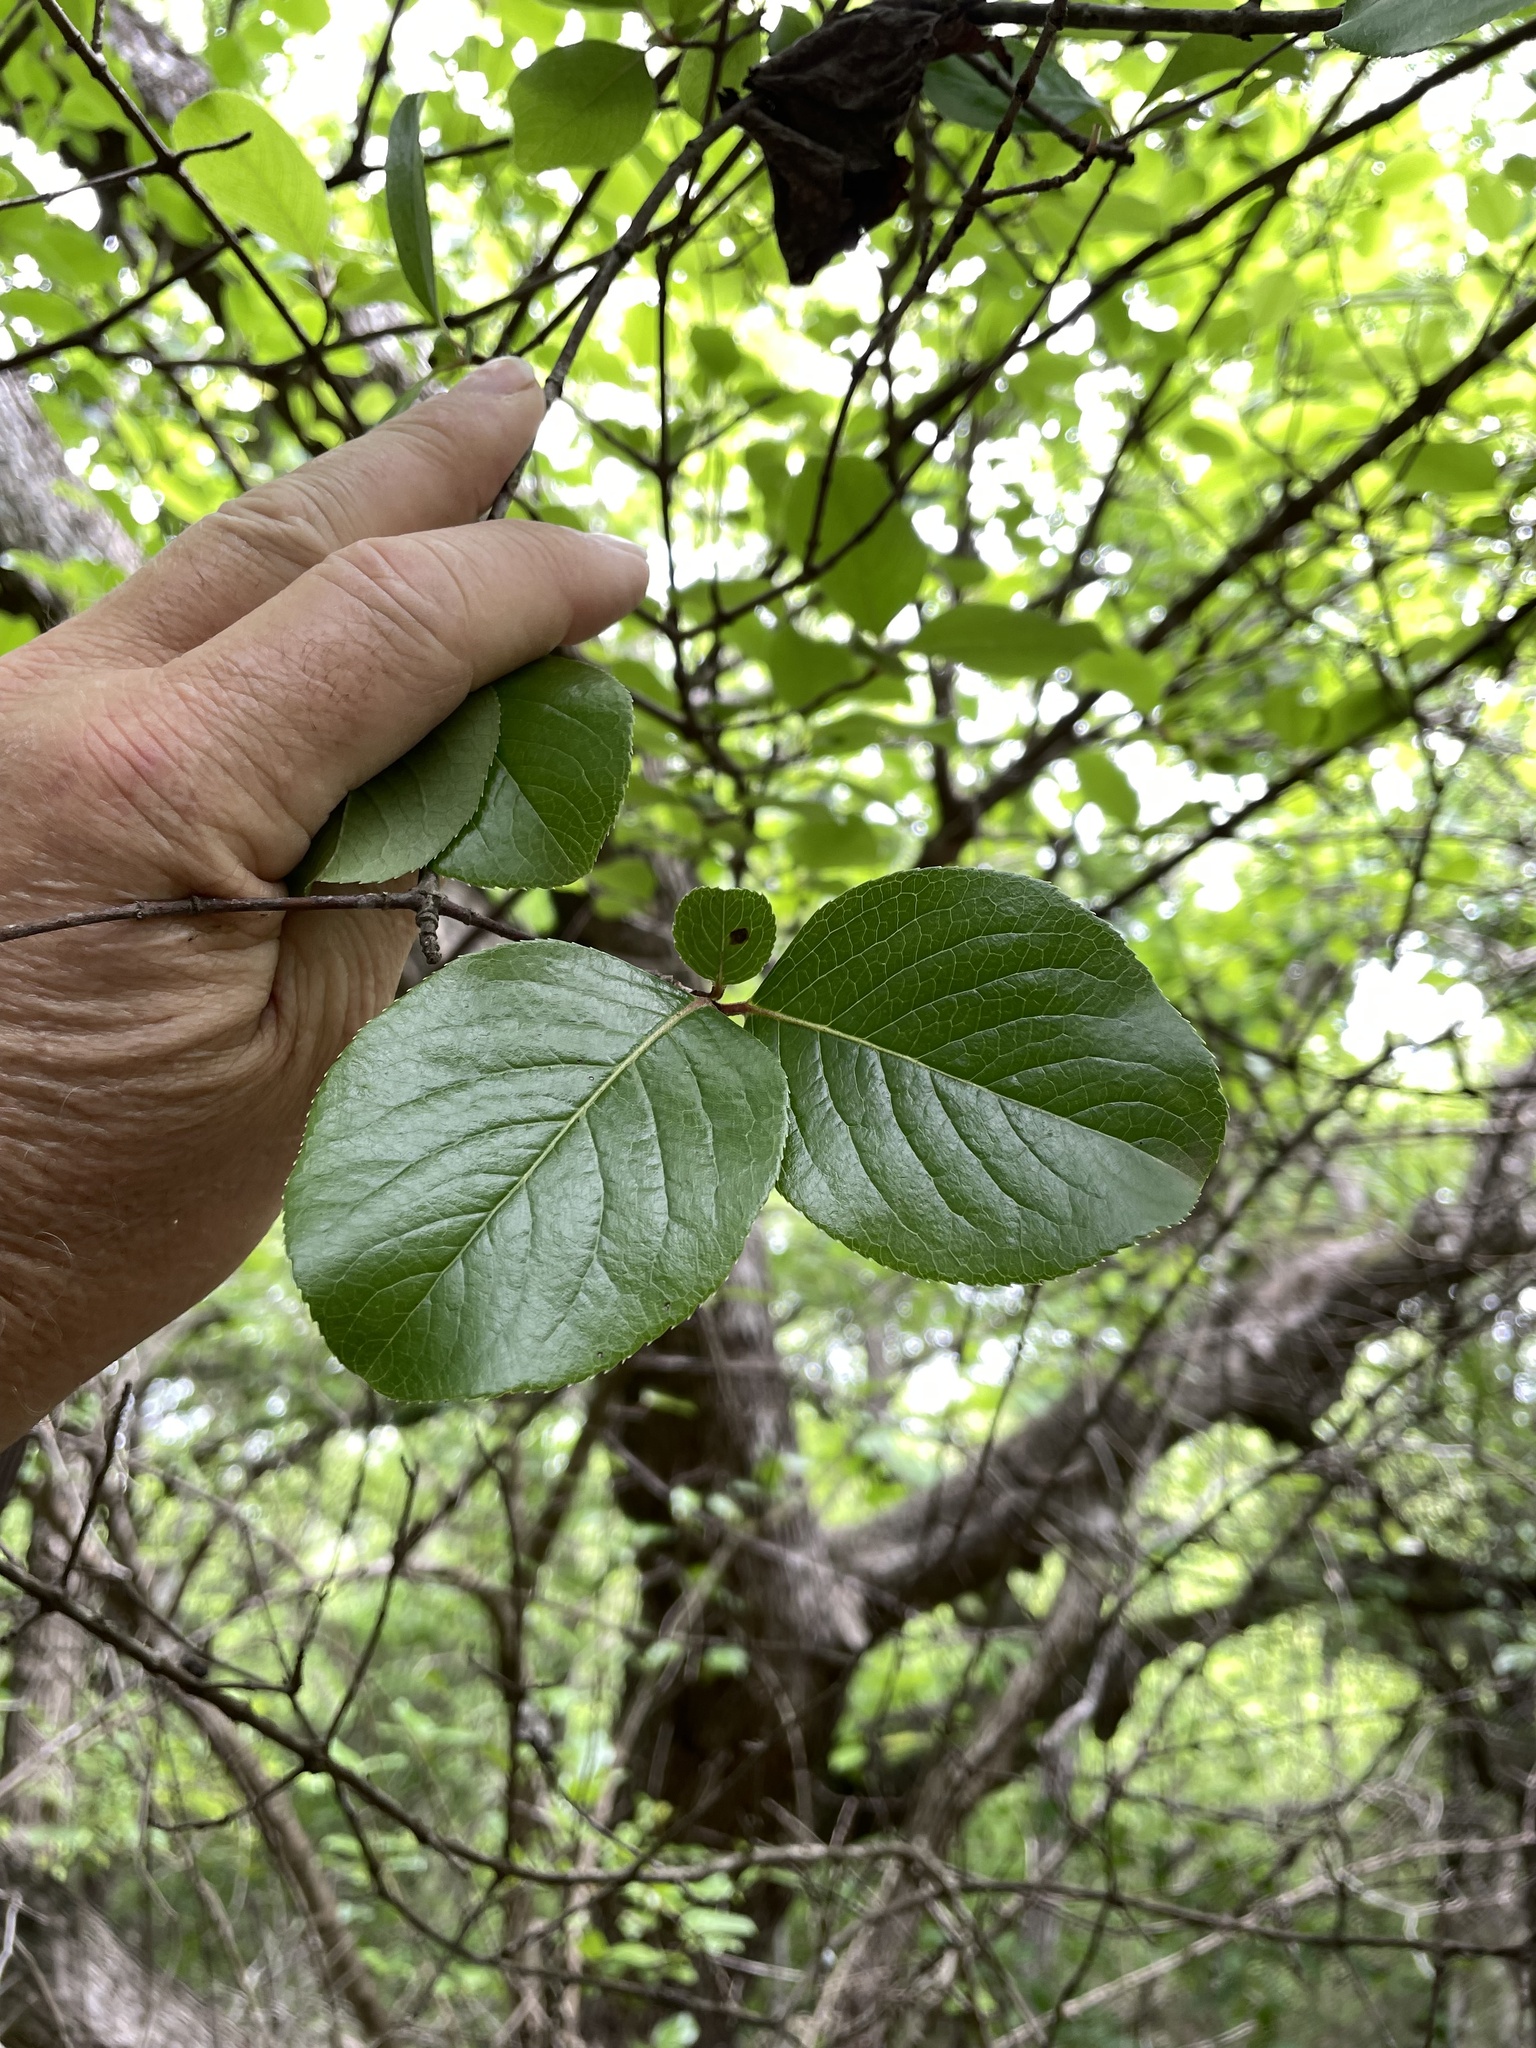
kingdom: Plantae
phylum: Tracheophyta
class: Magnoliopsida
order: Dipsacales
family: Viburnaceae
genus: Viburnum
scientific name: Viburnum rufidulum
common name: Blue haw
